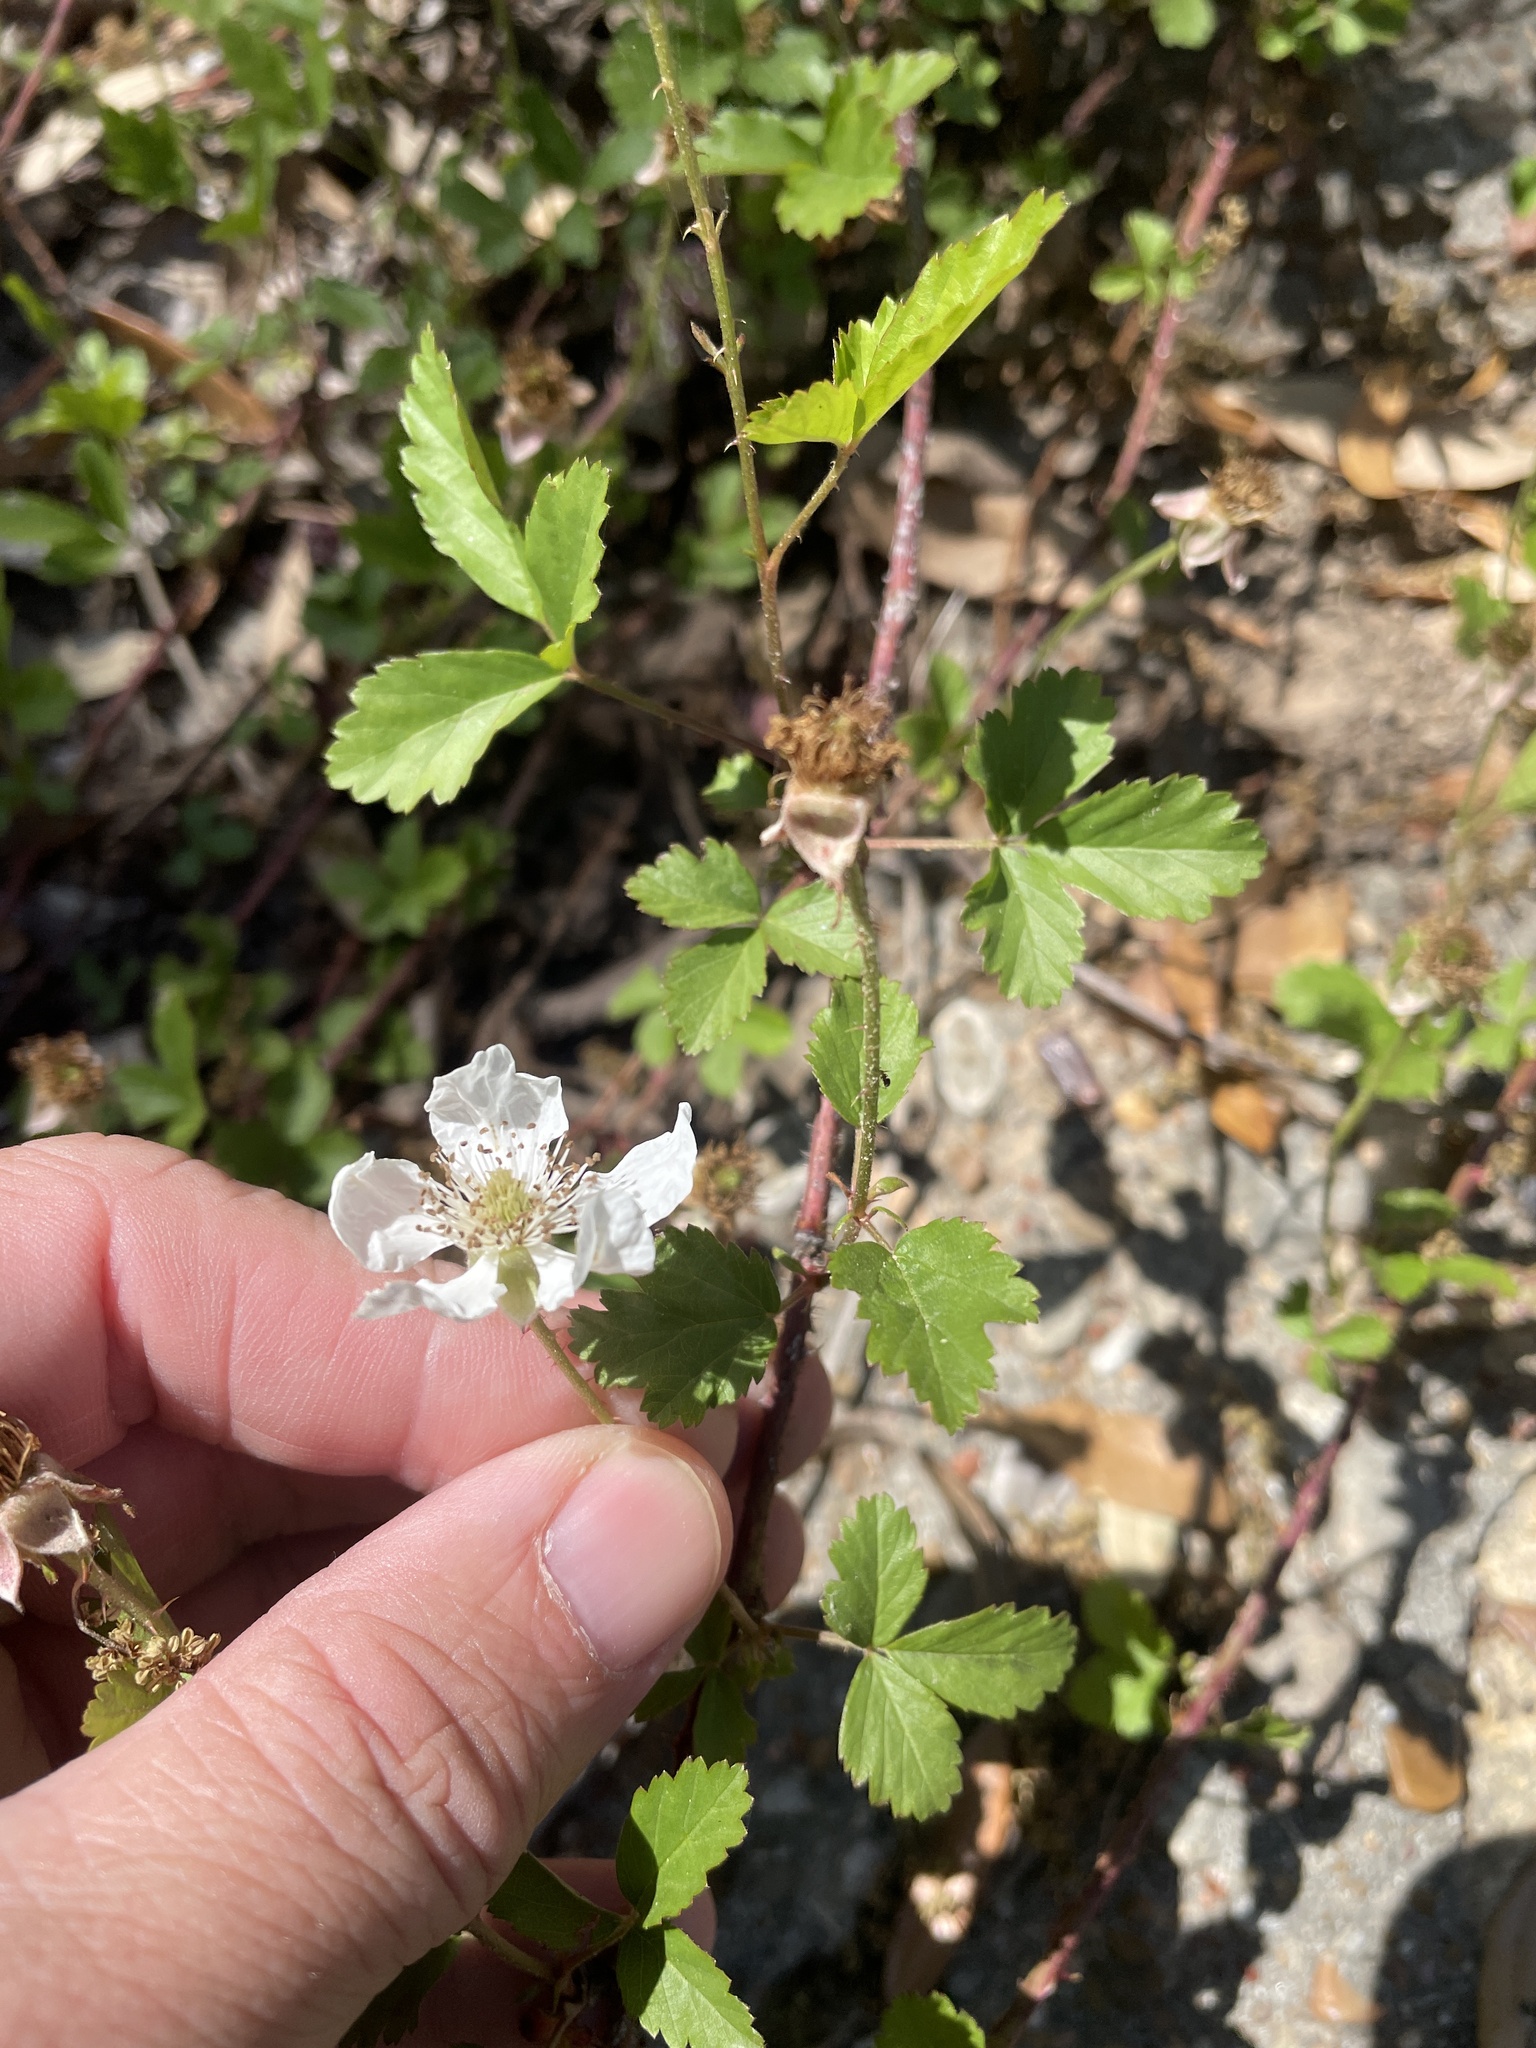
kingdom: Plantae
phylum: Tracheophyta
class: Magnoliopsida
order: Rosales
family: Rosaceae
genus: Rubus
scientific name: Rubus trivialis
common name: Southern dewberry
